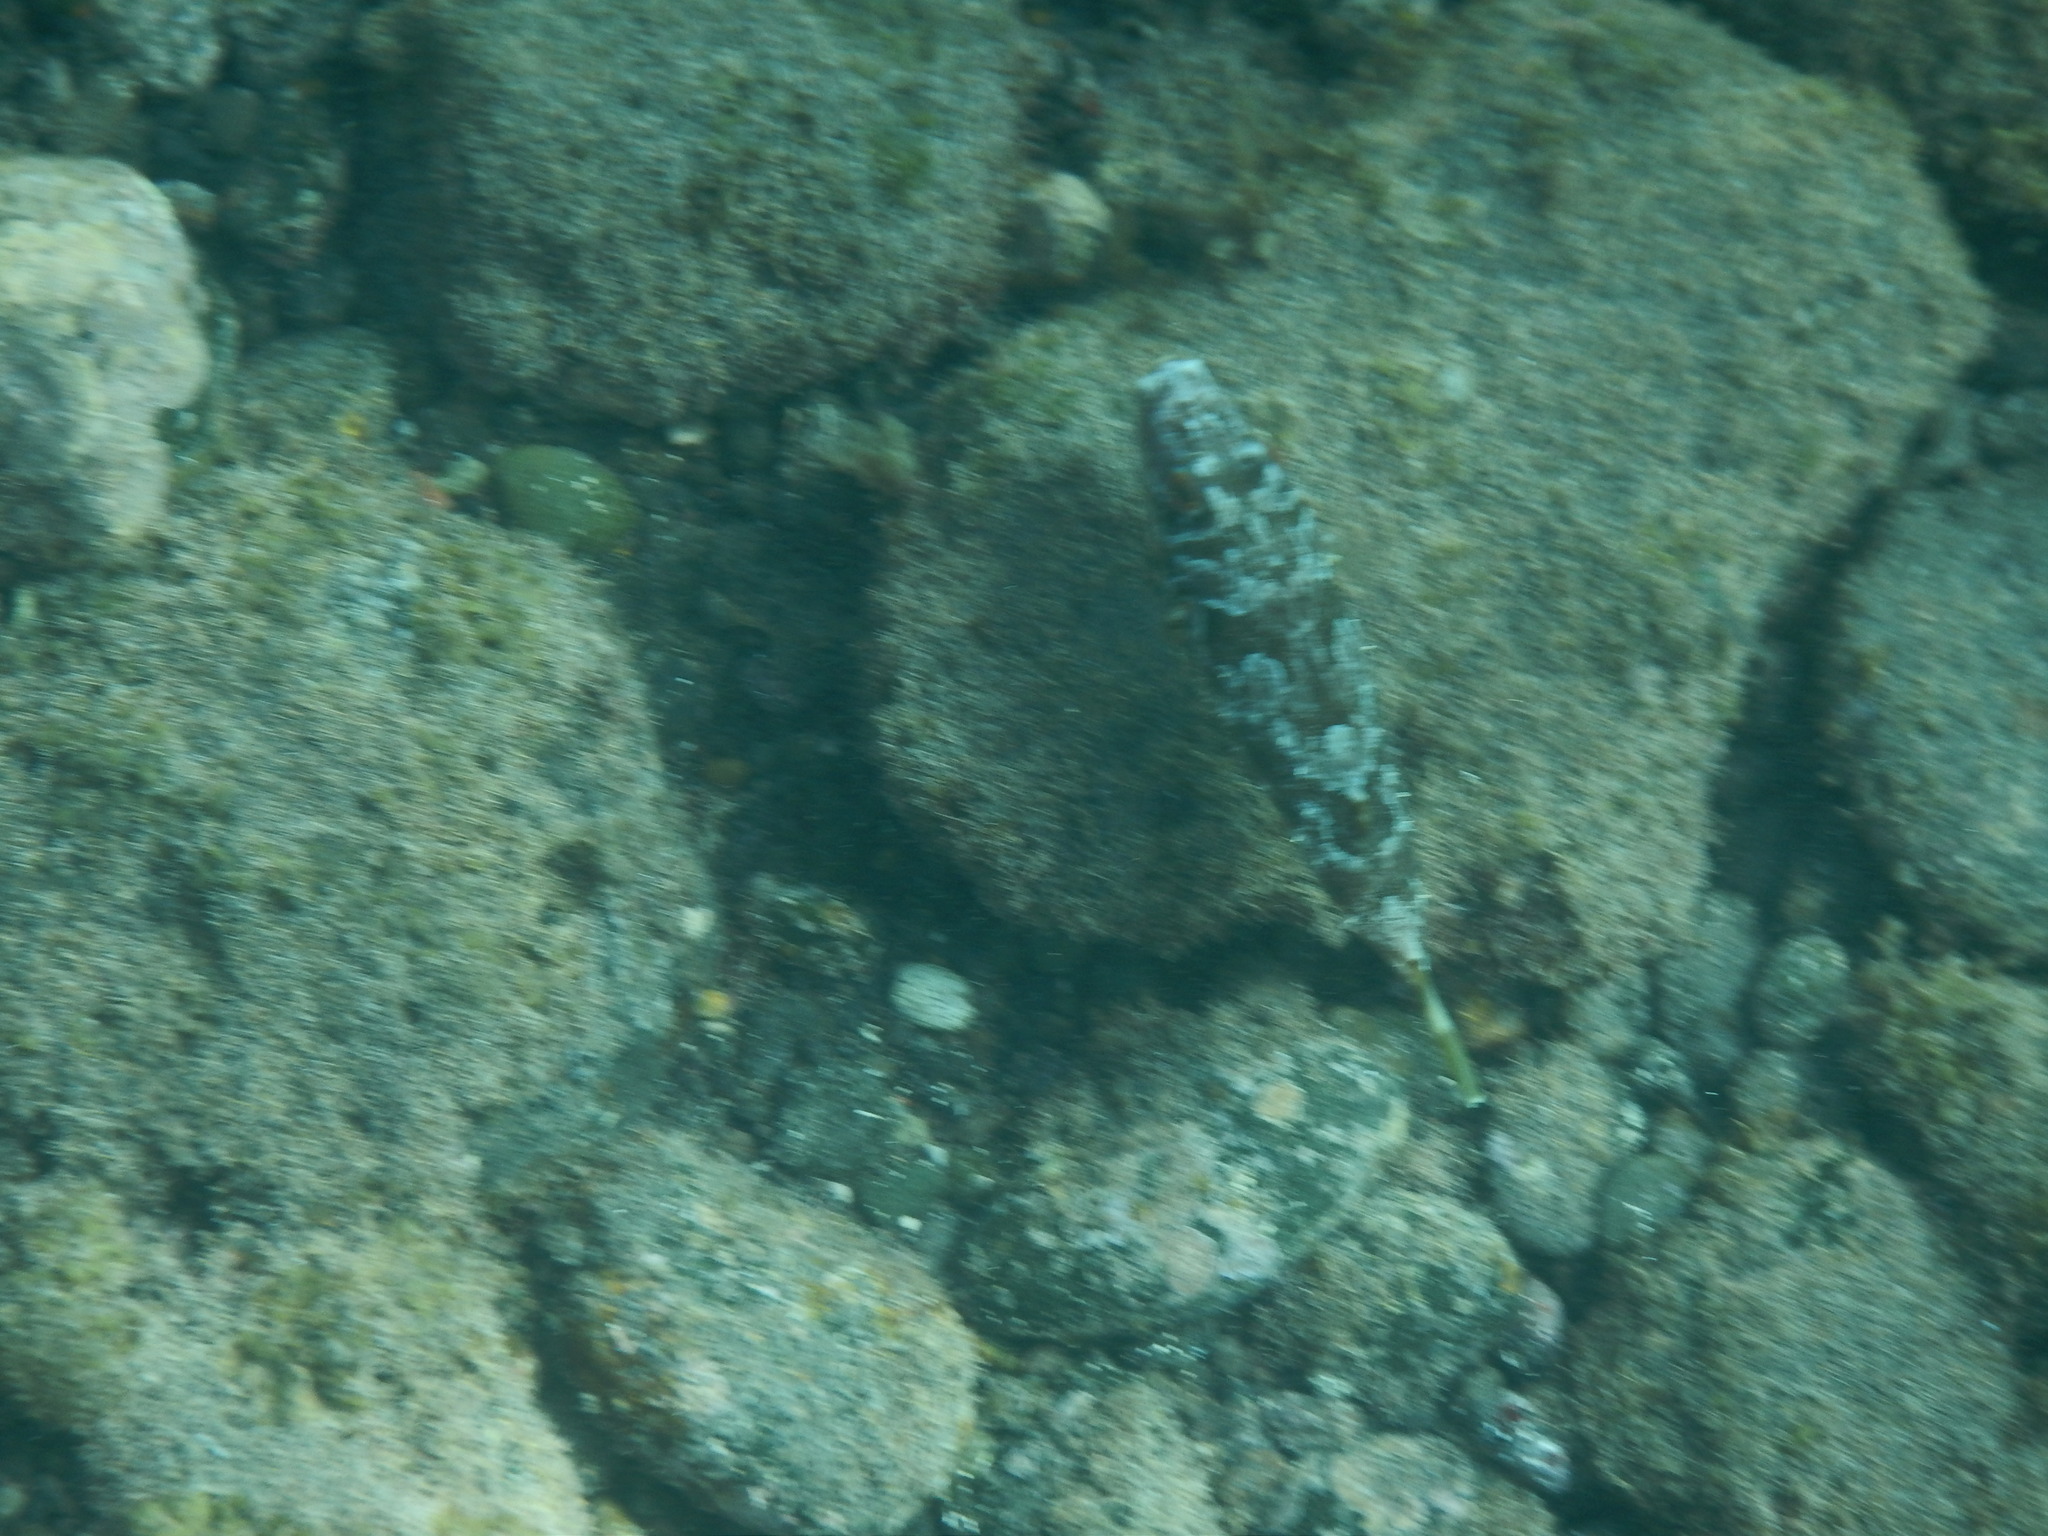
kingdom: Animalia
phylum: Chordata
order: Tetraodontiformes
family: Tetraodontidae
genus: Sphoeroides
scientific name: Sphoeroides marmoratus
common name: Guinean puffer
